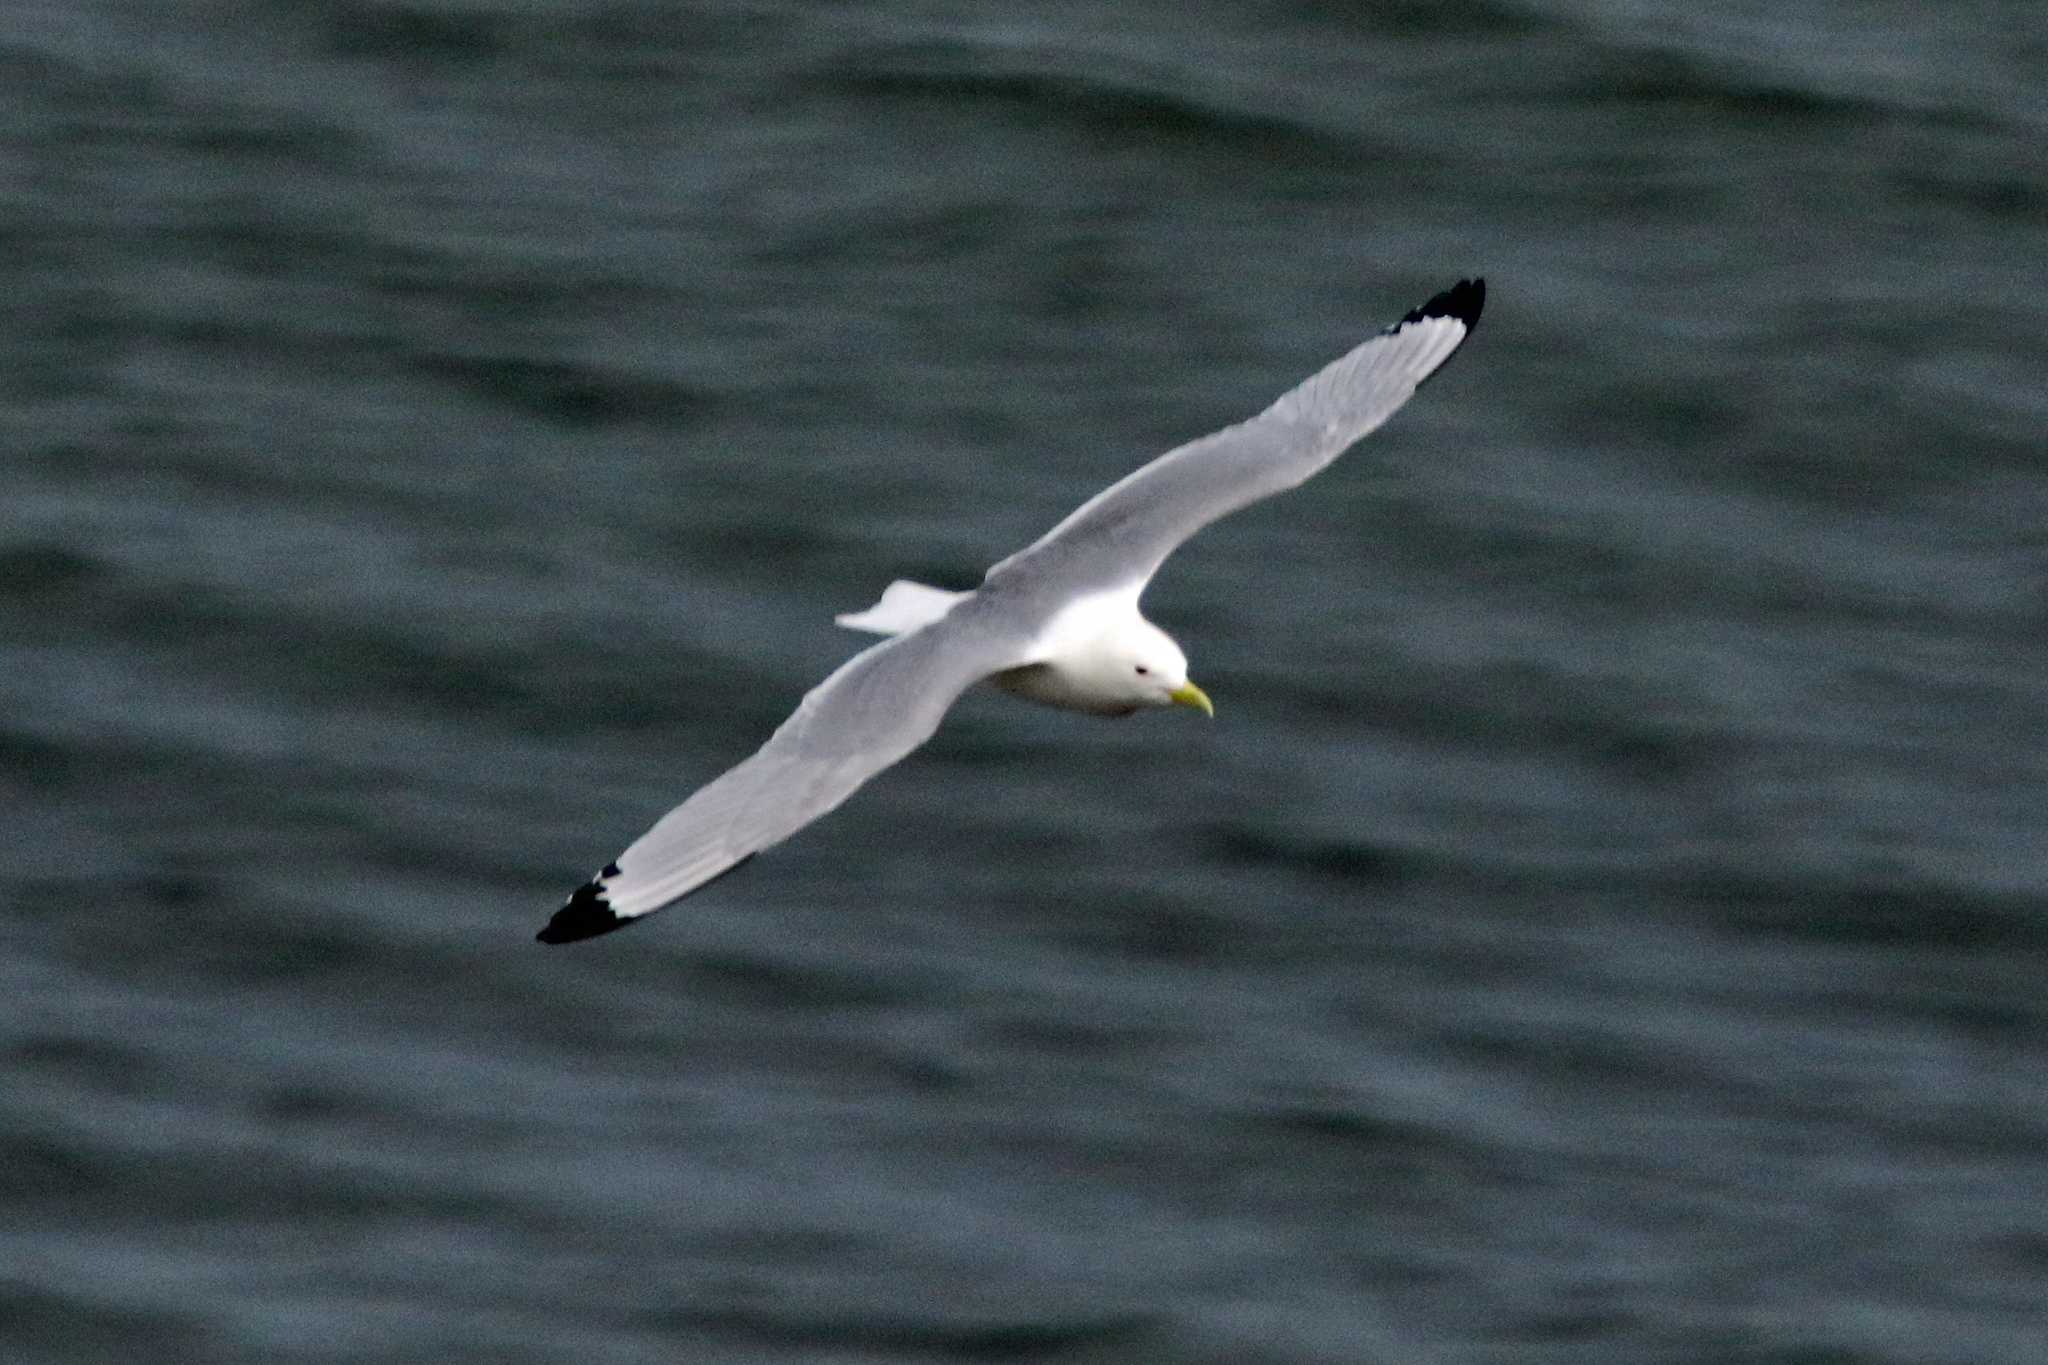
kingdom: Animalia
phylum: Chordata
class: Aves
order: Charadriiformes
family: Laridae
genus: Rissa
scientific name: Rissa tridactyla
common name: Black-legged kittiwake
